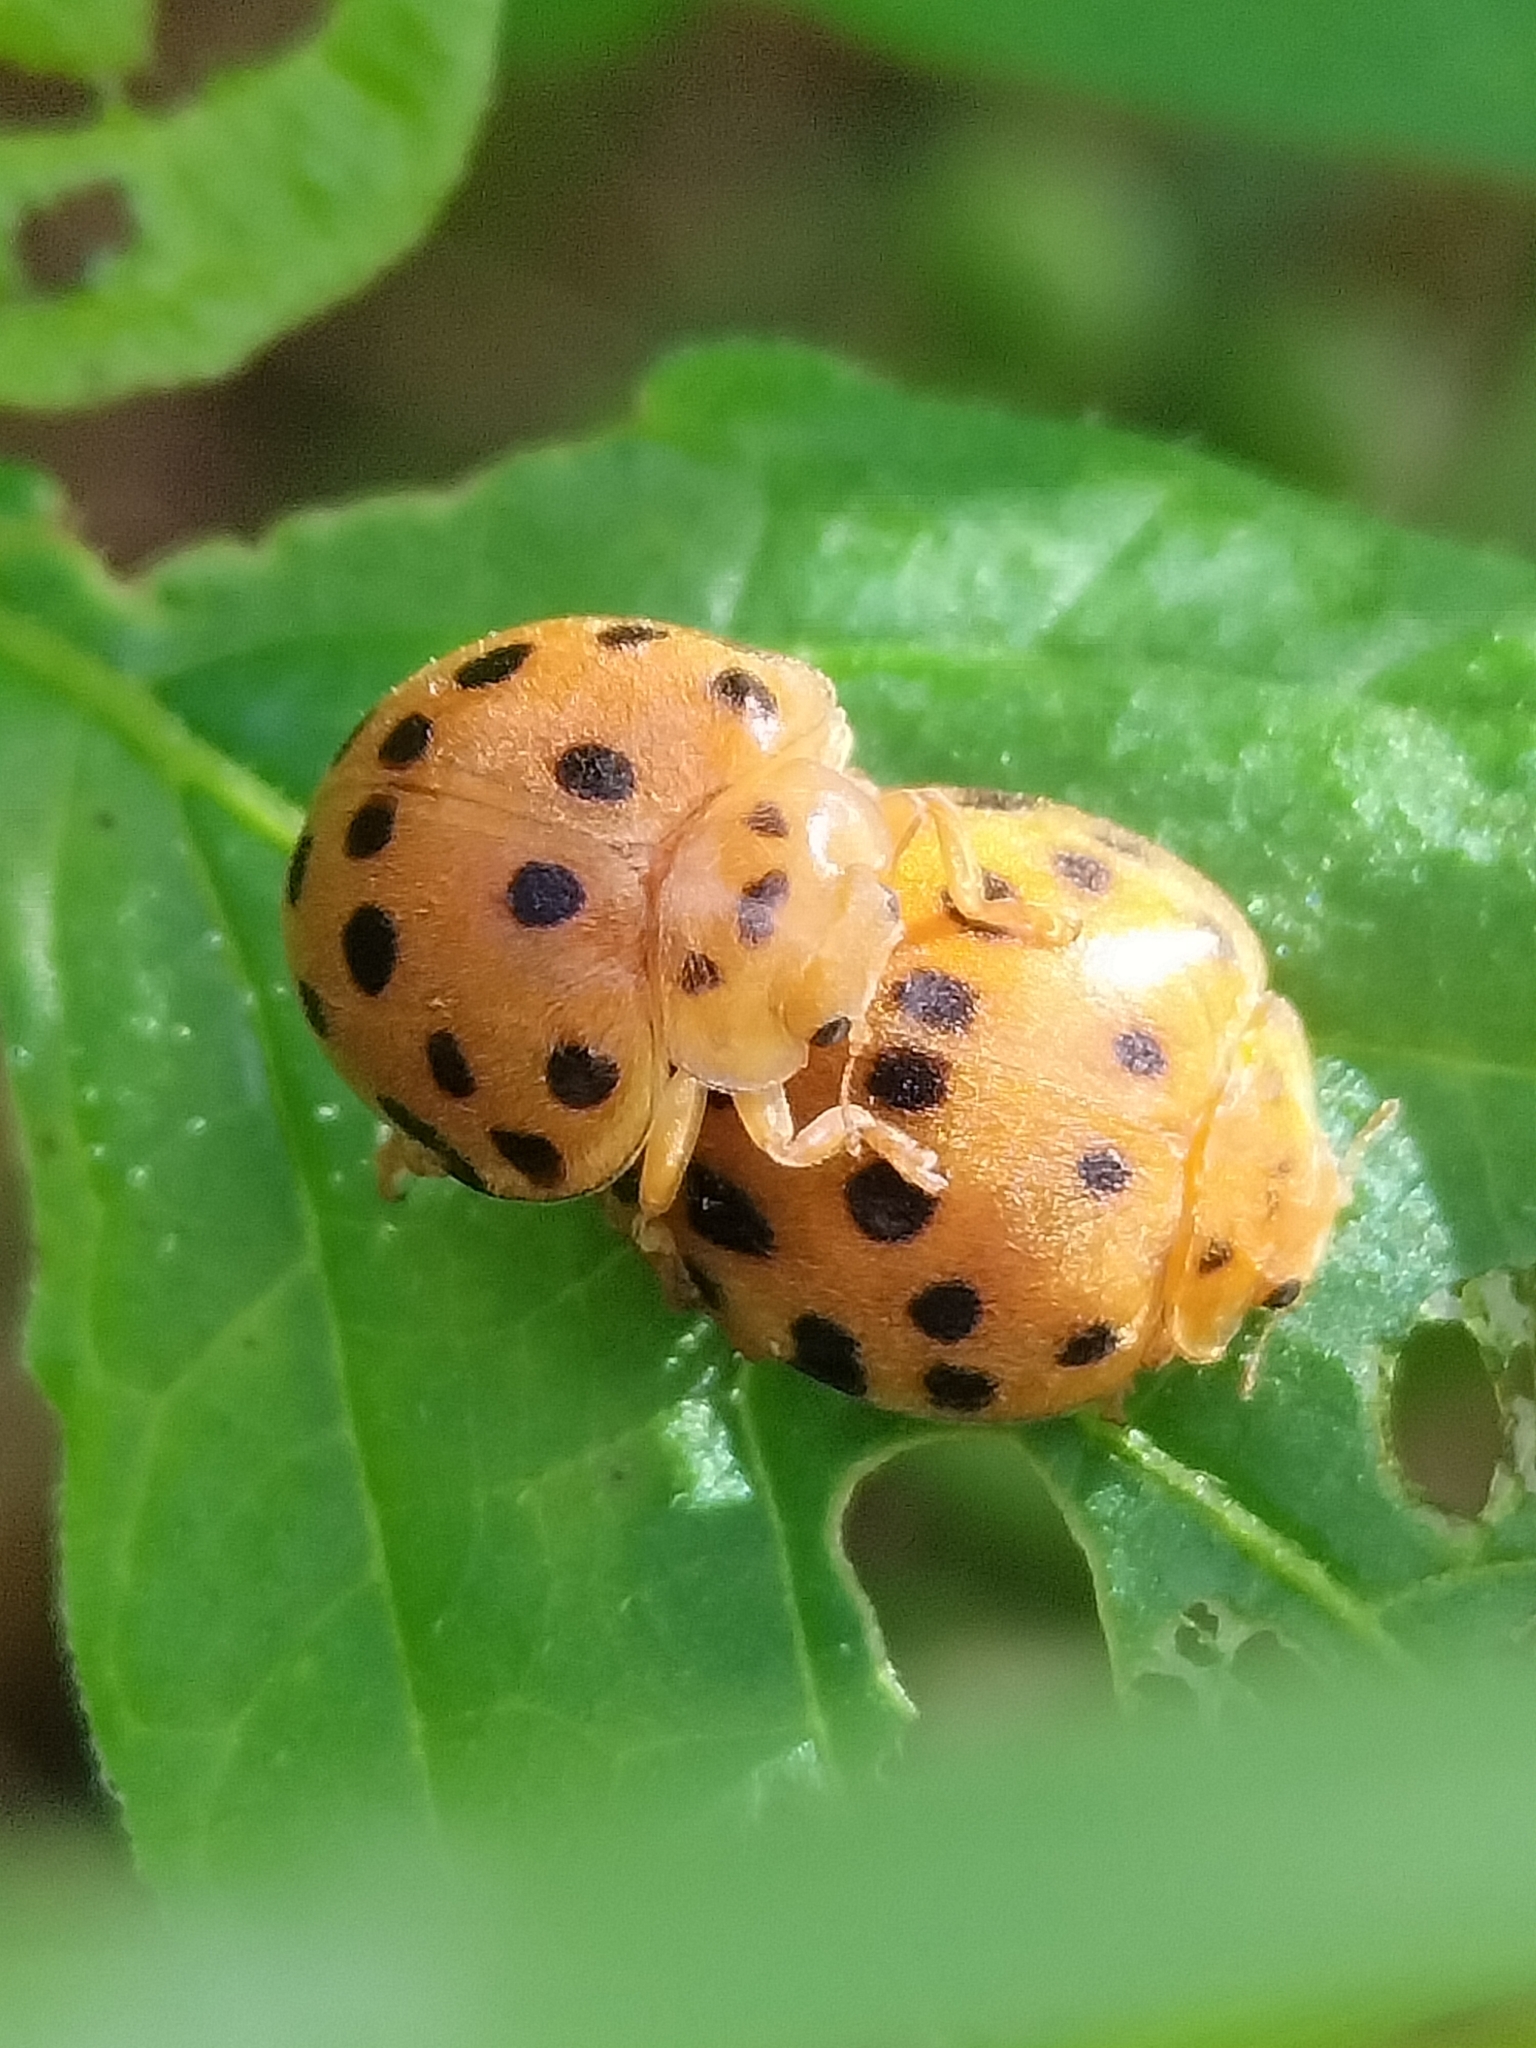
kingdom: Animalia
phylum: Arthropoda
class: Insecta
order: Coleoptera
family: Coccinellidae
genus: Henosepilachna
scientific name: Henosepilachna vigintioctopunctata
